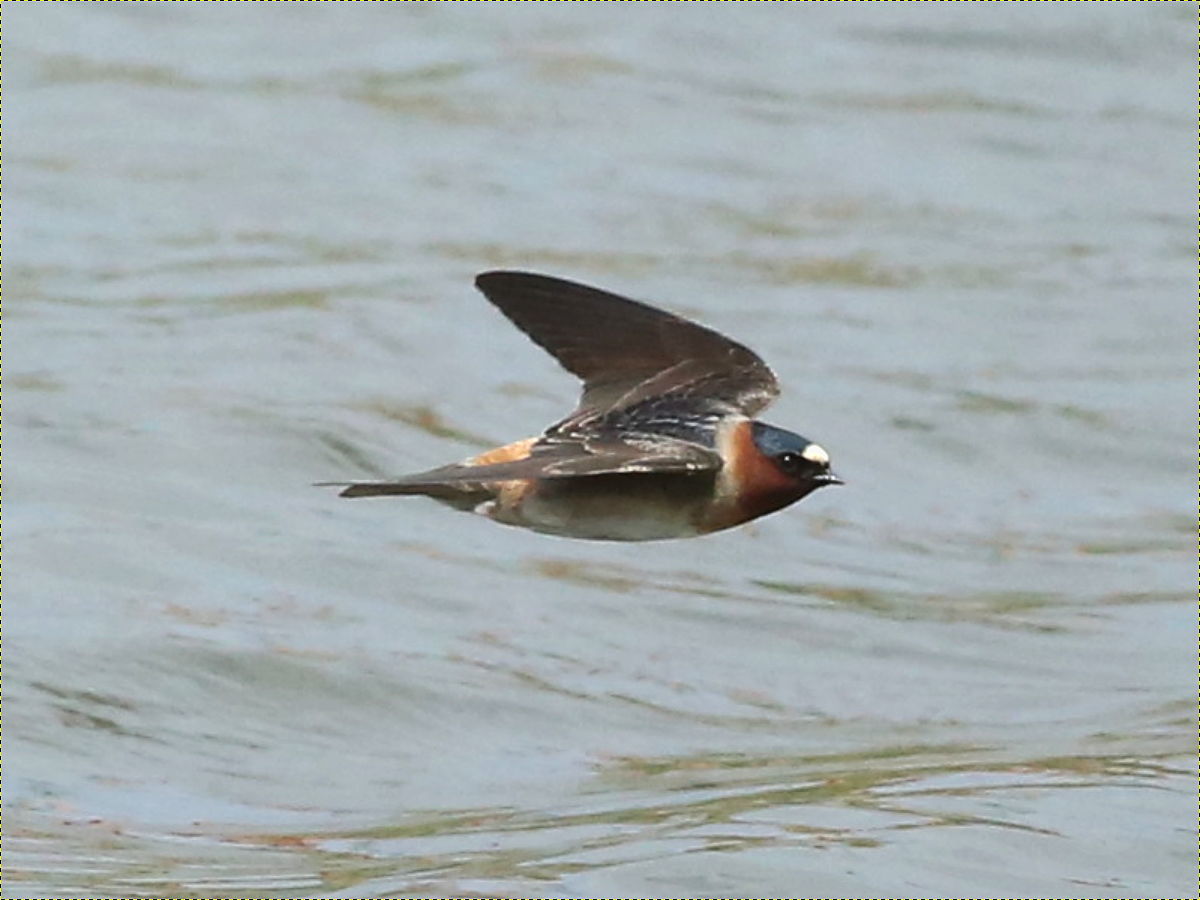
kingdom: Animalia
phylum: Chordata
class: Aves
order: Passeriformes
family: Hirundinidae
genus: Petrochelidon
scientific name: Petrochelidon pyrrhonota
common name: American cliff swallow
